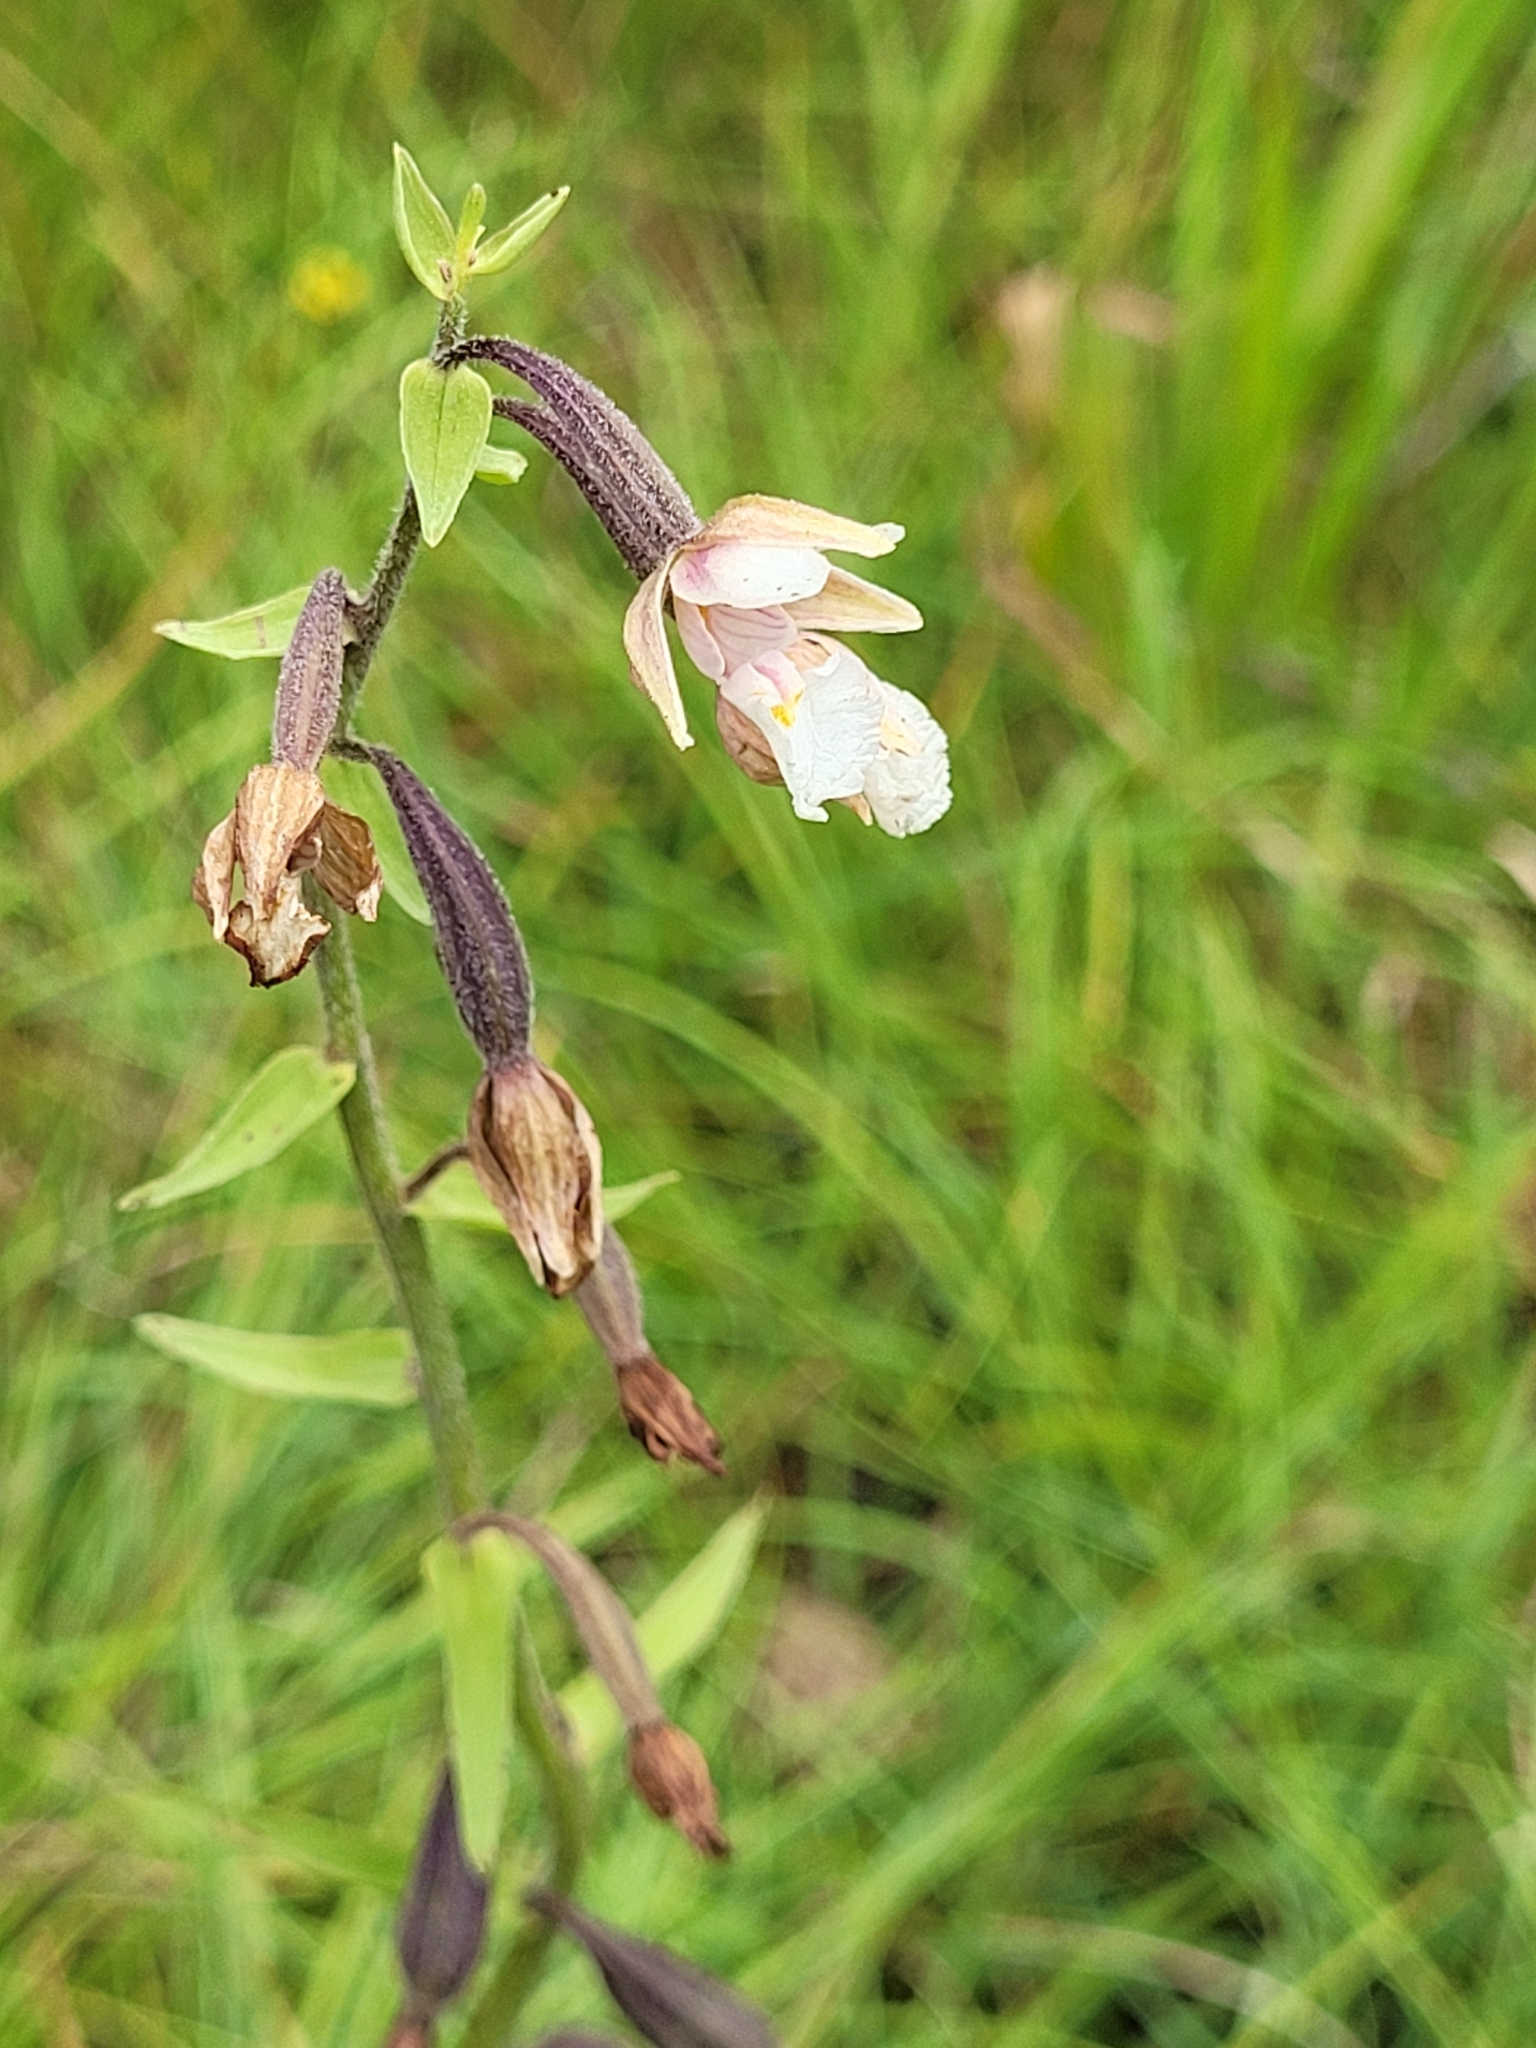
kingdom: Plantae
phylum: Tracheophyta
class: Liliopsida
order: Asparagales
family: Orchidaceae
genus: Epipactis
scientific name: Epipactis palustris
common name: Marsh helleborine
